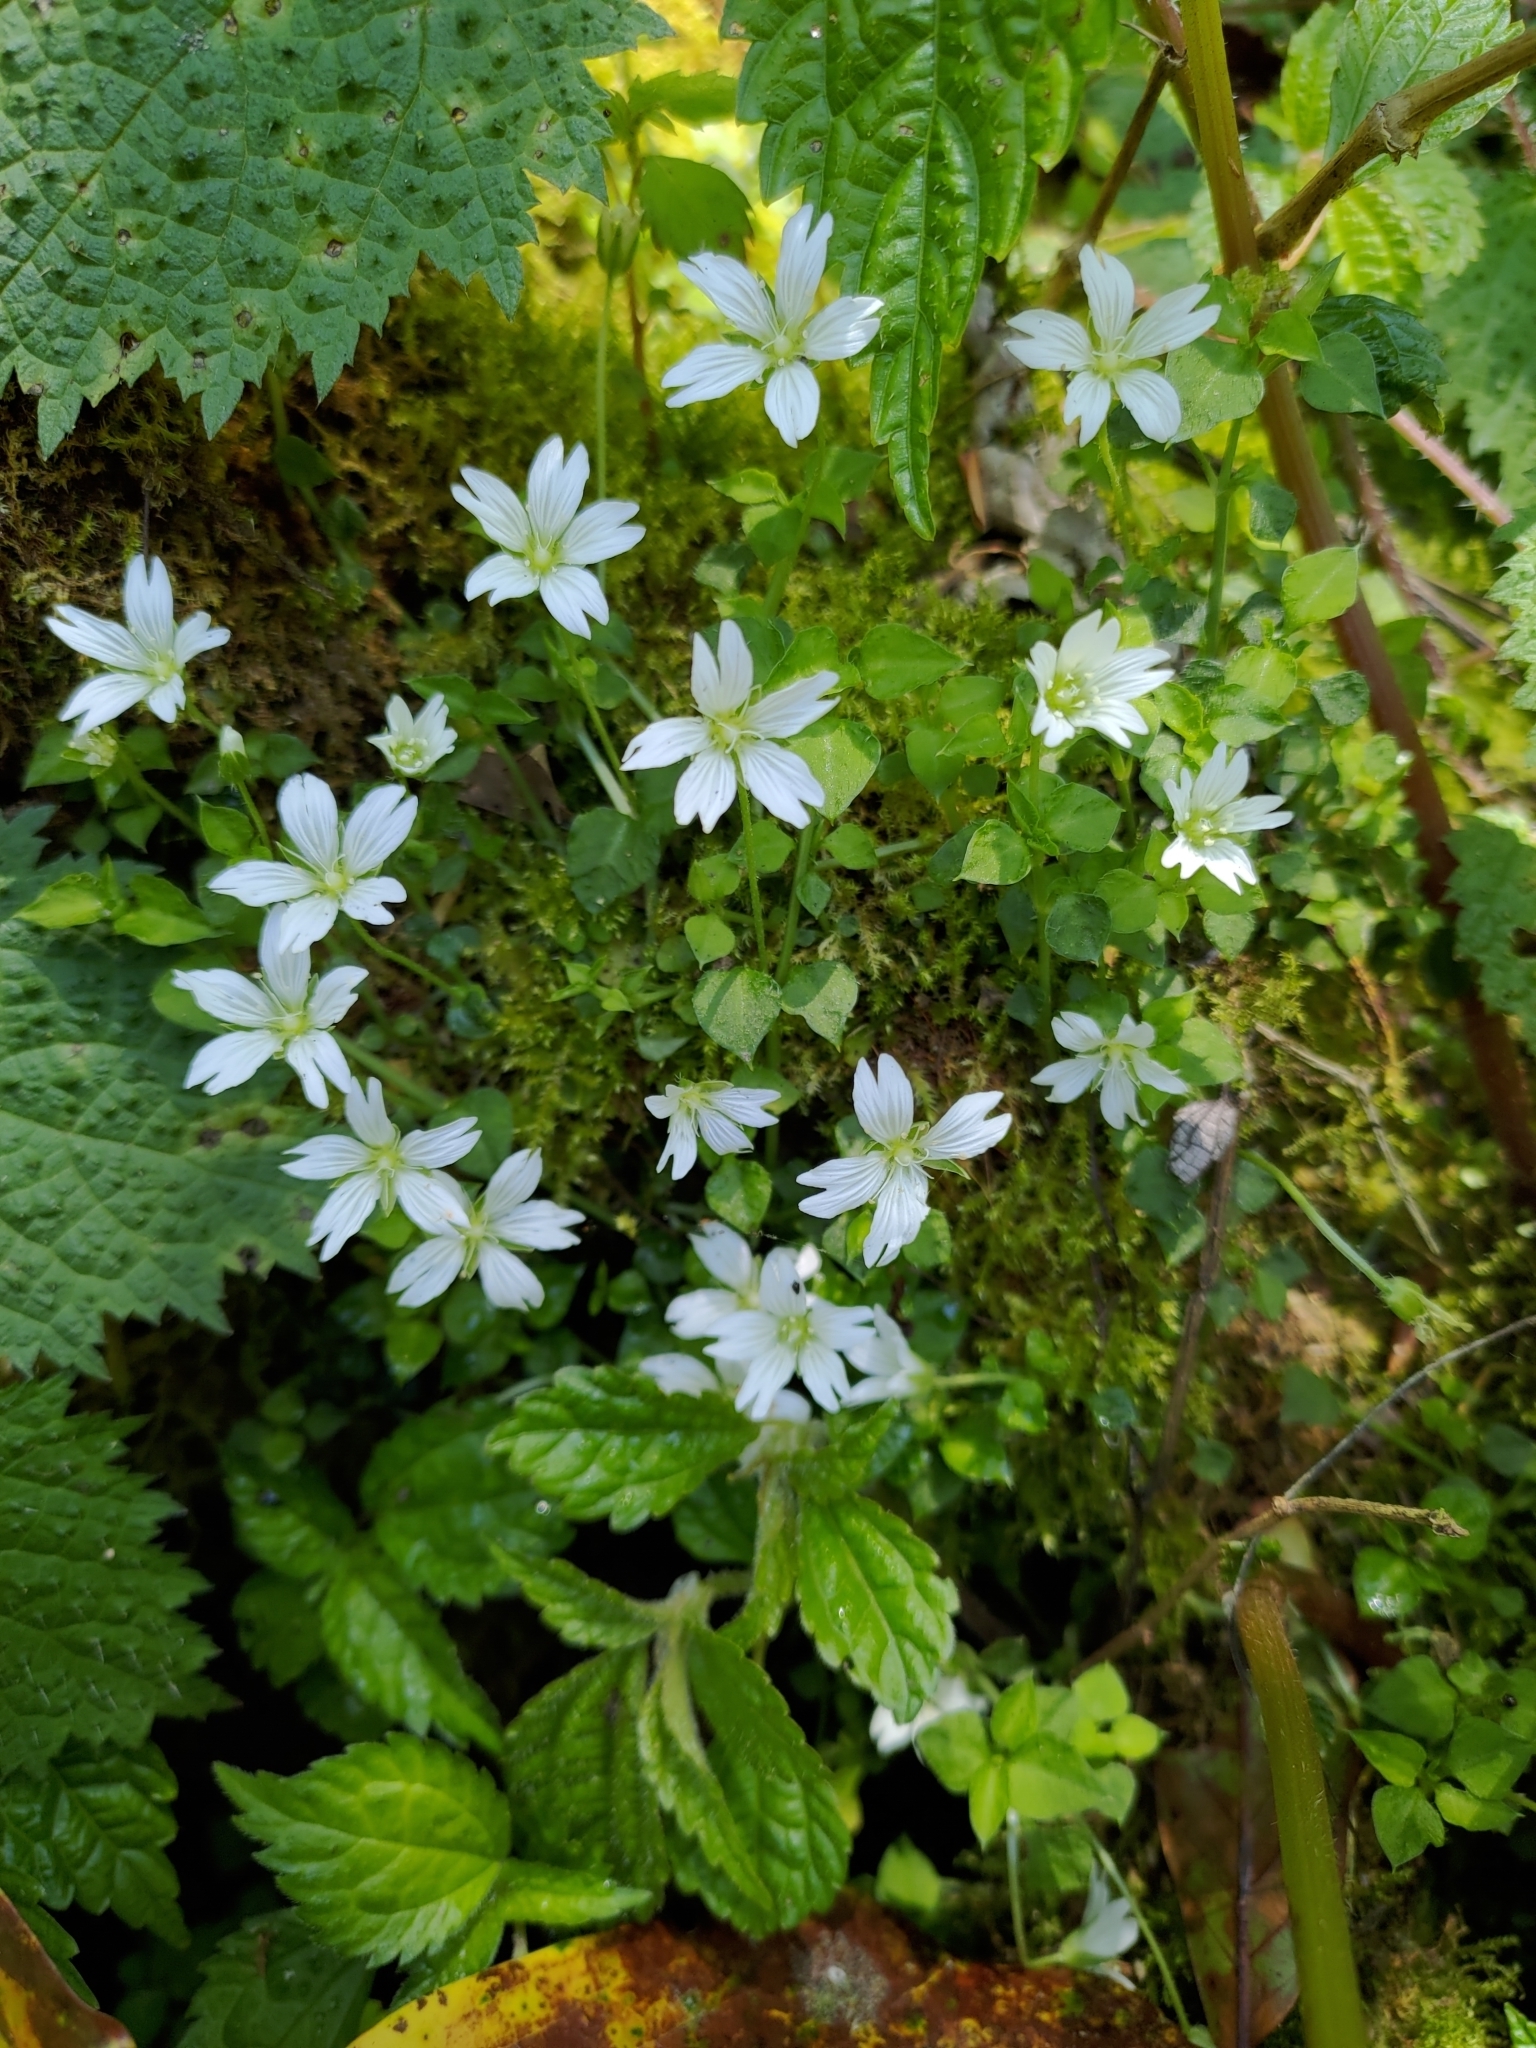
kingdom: Plantae
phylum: Tracheophyta
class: Magnoliopsida
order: Caryophyllales
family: Caryophyllaceae
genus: Nubelaria
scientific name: Nubelaria arisanensis
